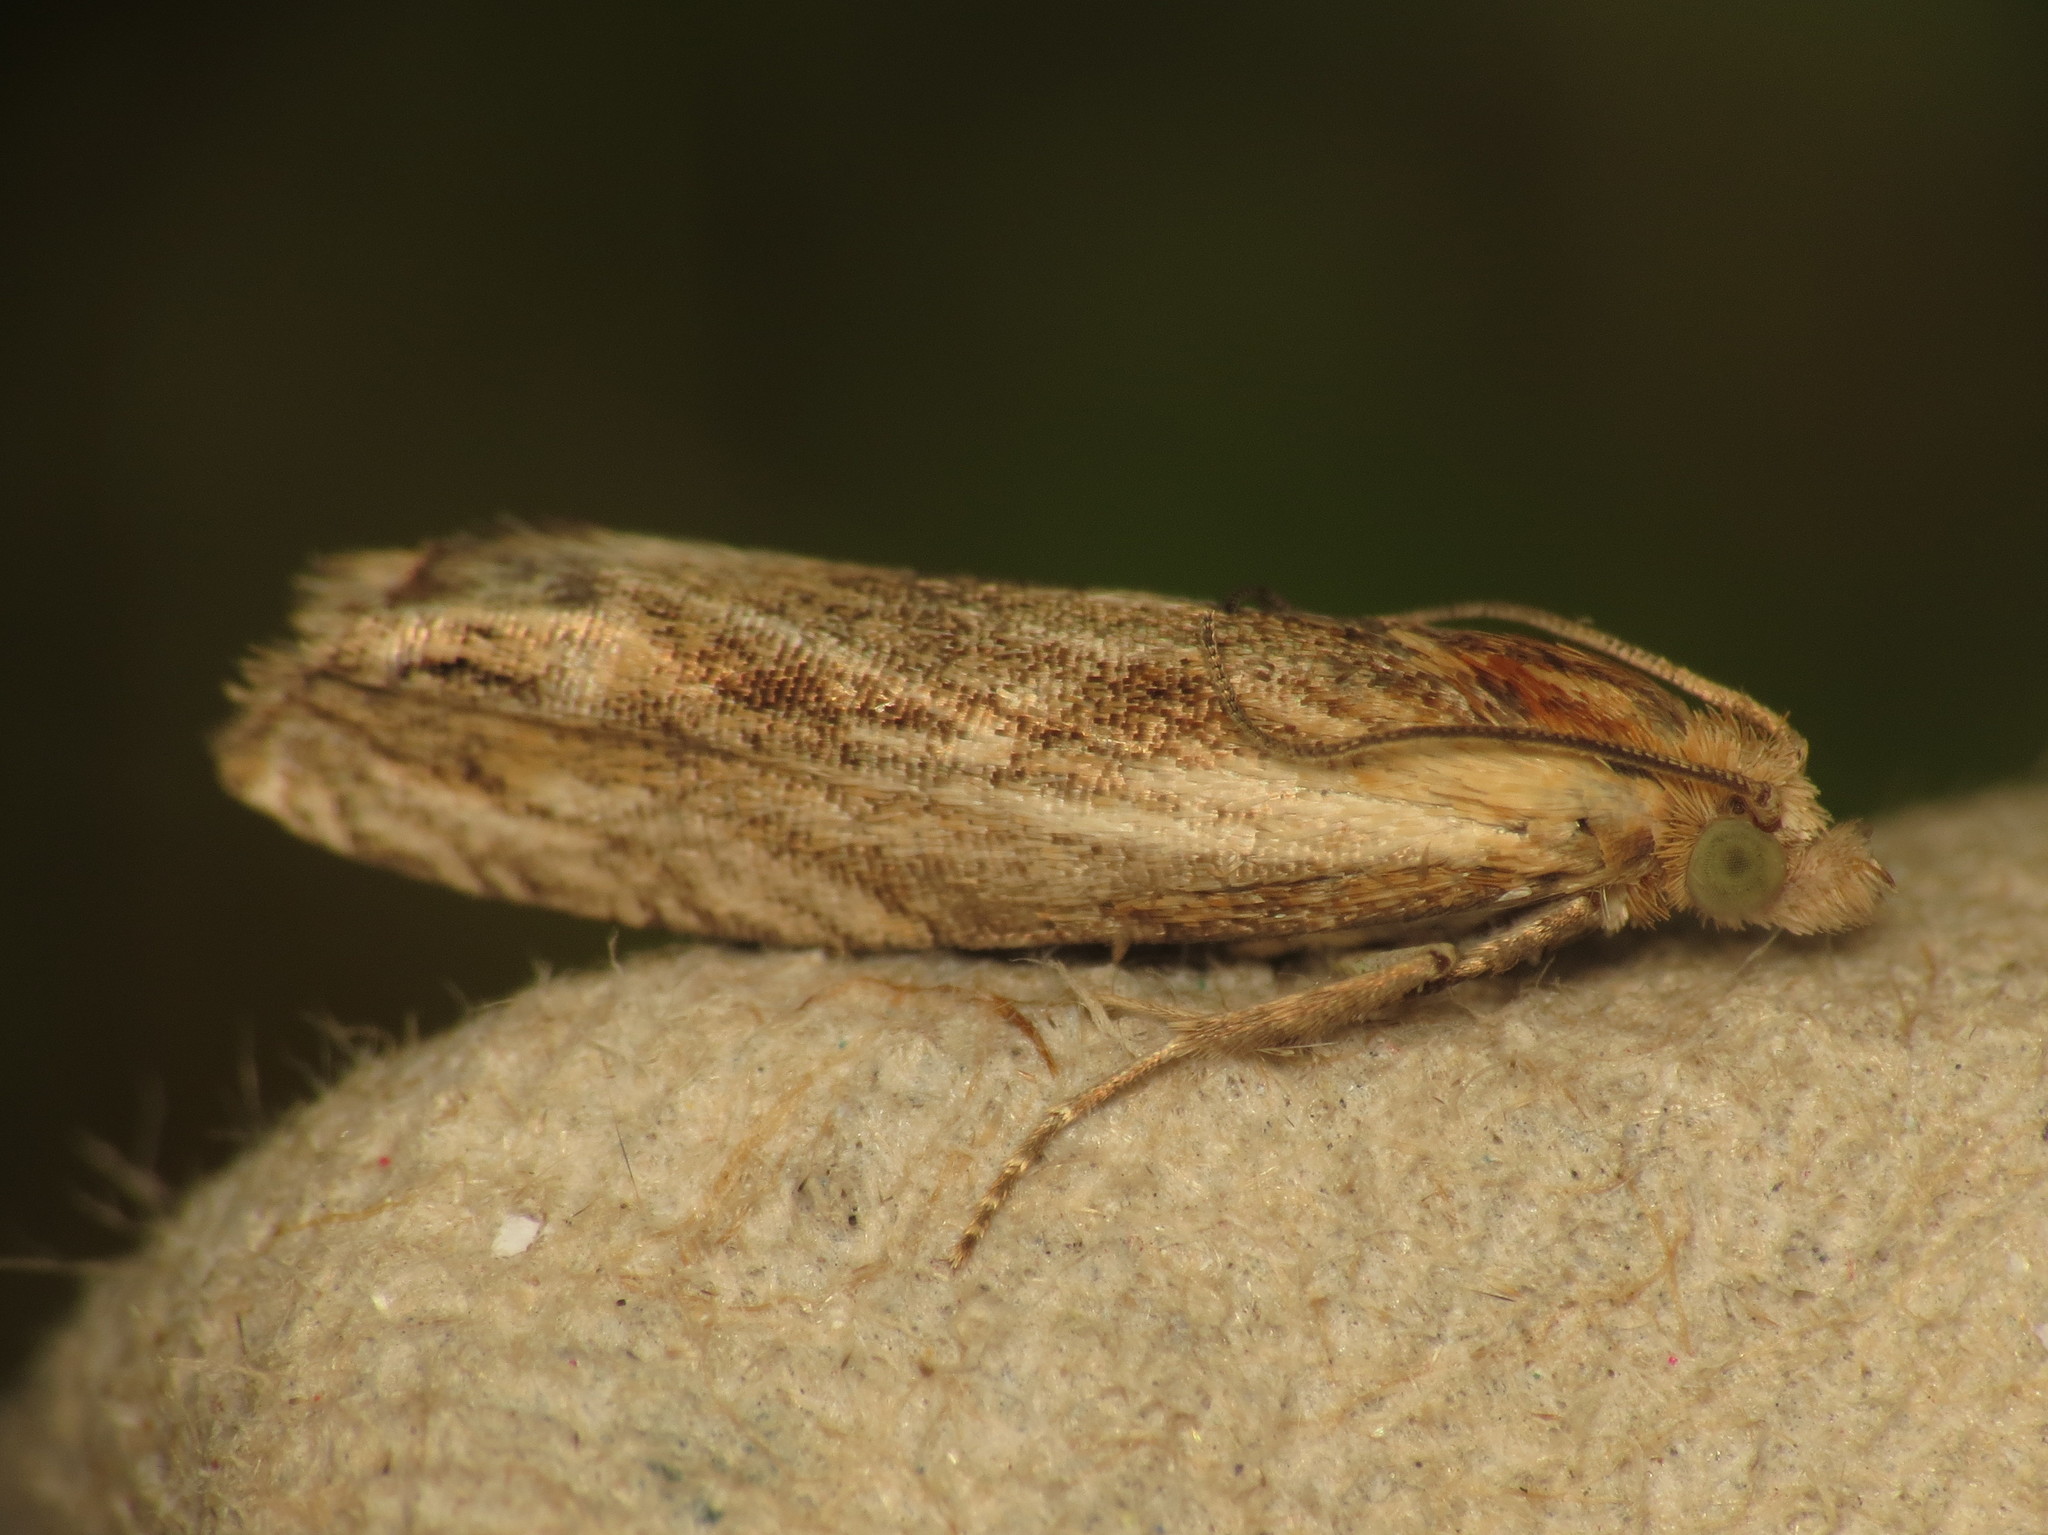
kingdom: Animalia
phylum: Arthropoda
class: Insecta
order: Lepidoptera
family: Tortricidae
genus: Eucosma
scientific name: Eucosma cana
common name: Hoary belle
